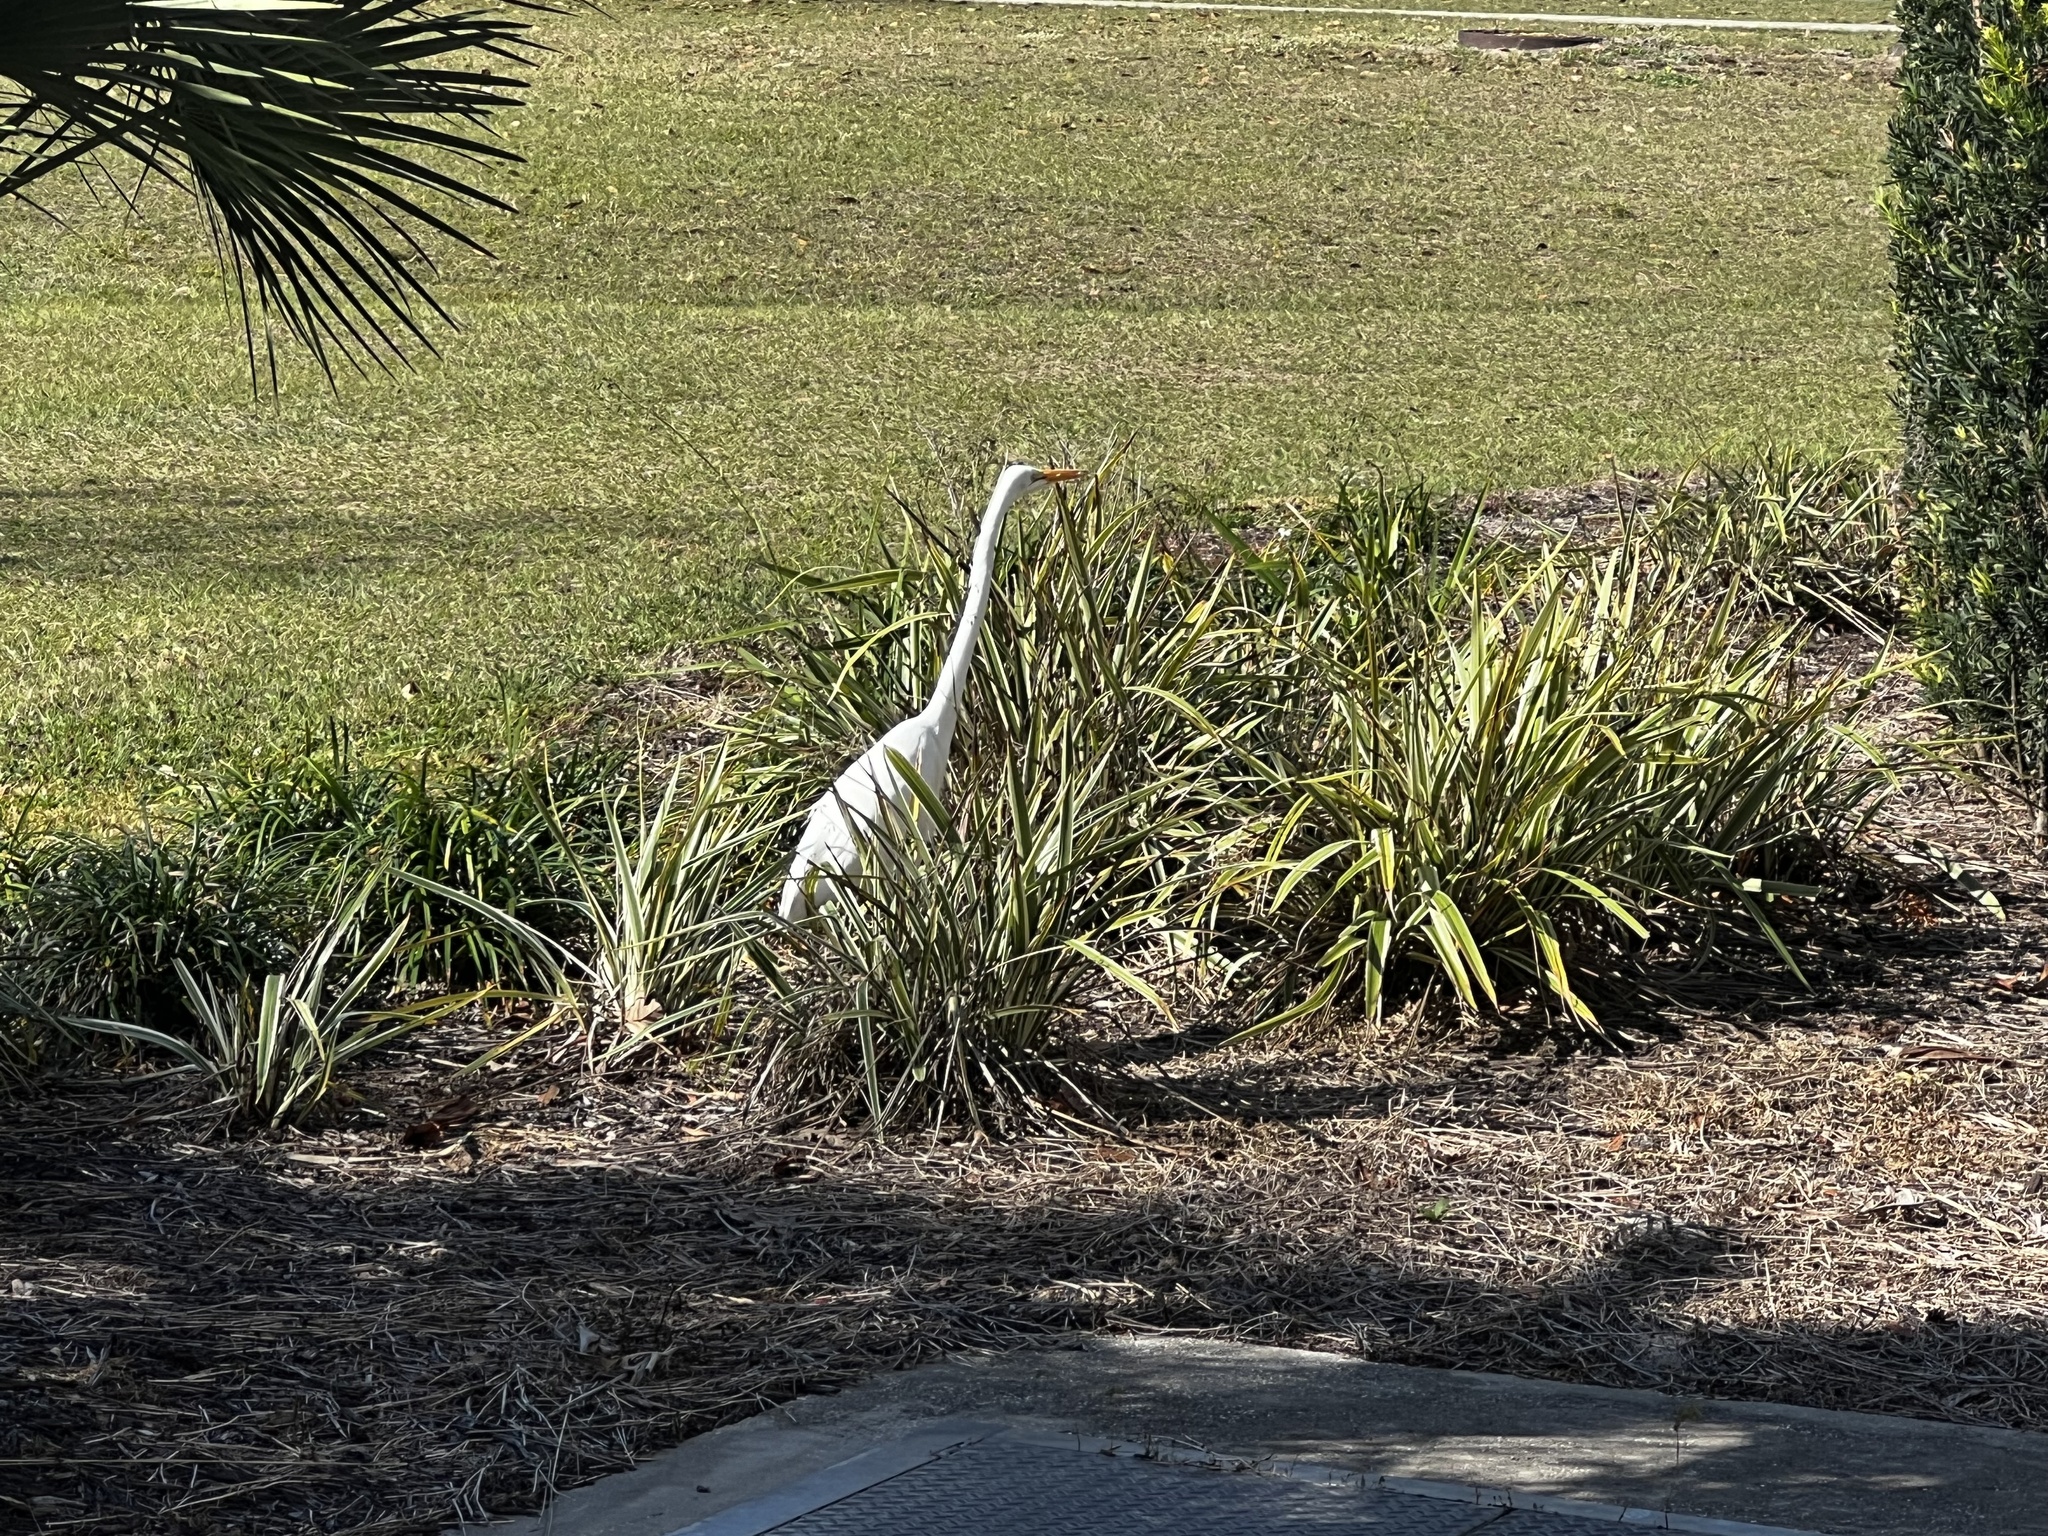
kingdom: Animalia
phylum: Chordata
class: Aves
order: Pelecaniformes
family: Ardeidae
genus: Ardea
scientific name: Ardea alba
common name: Great egret
